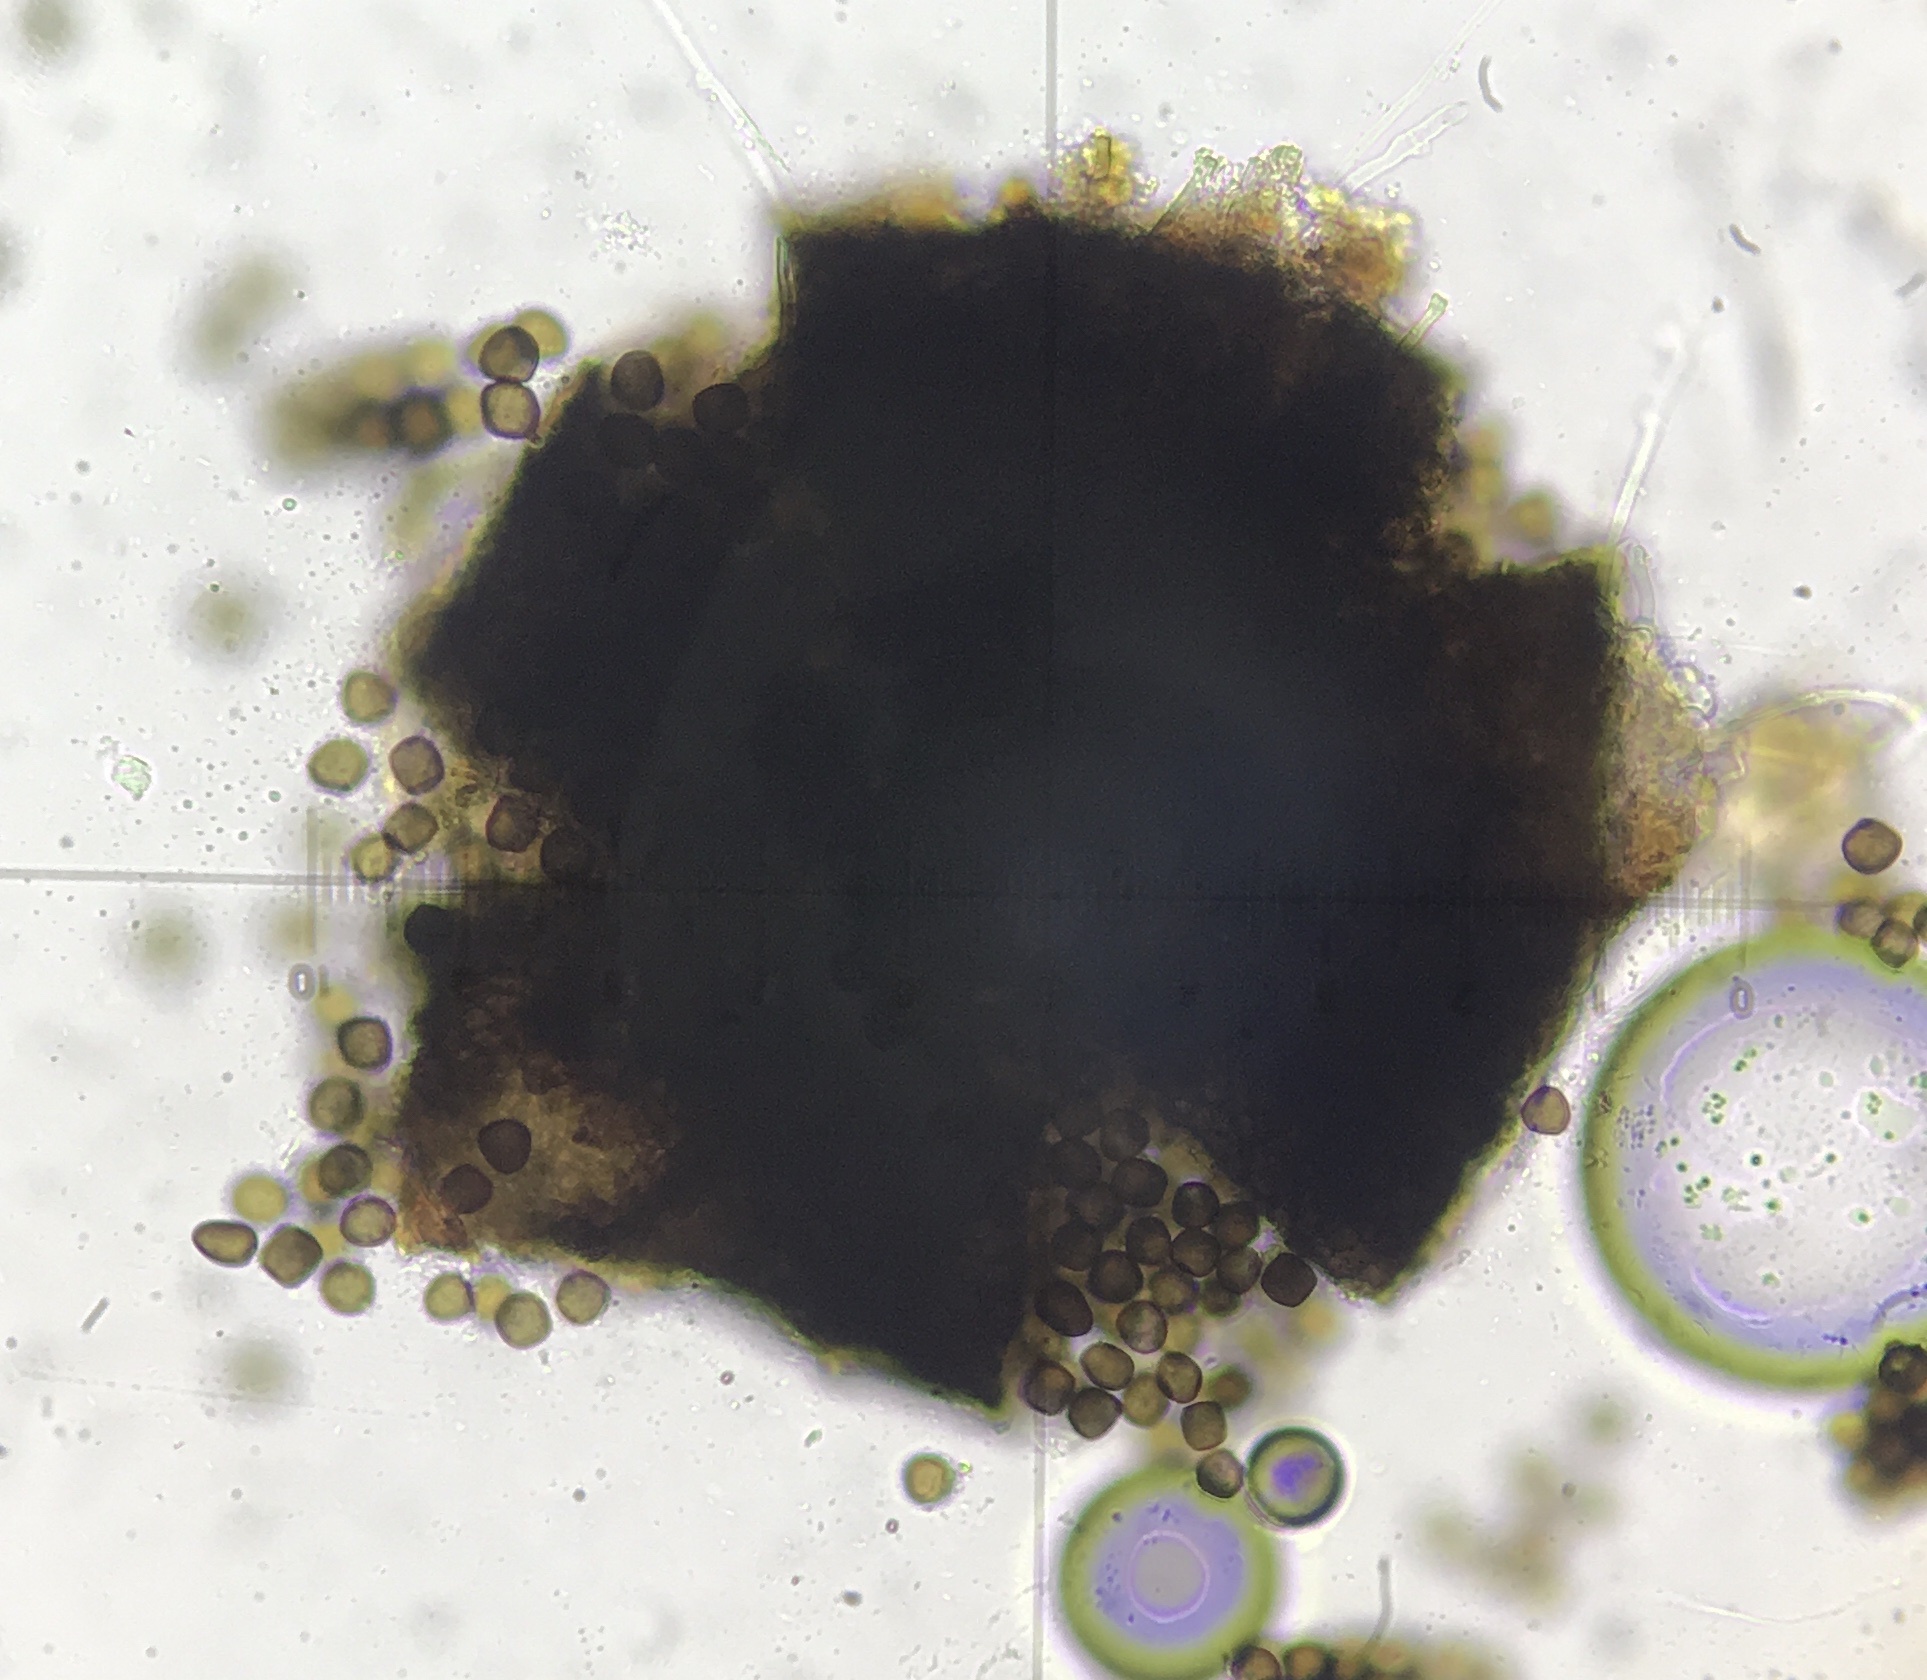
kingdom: Fungi
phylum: Ascomycota
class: Dothideomycetes
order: Pleosporales
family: Sporormiaceae
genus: Sporormia
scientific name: Sporormia subticinensis
